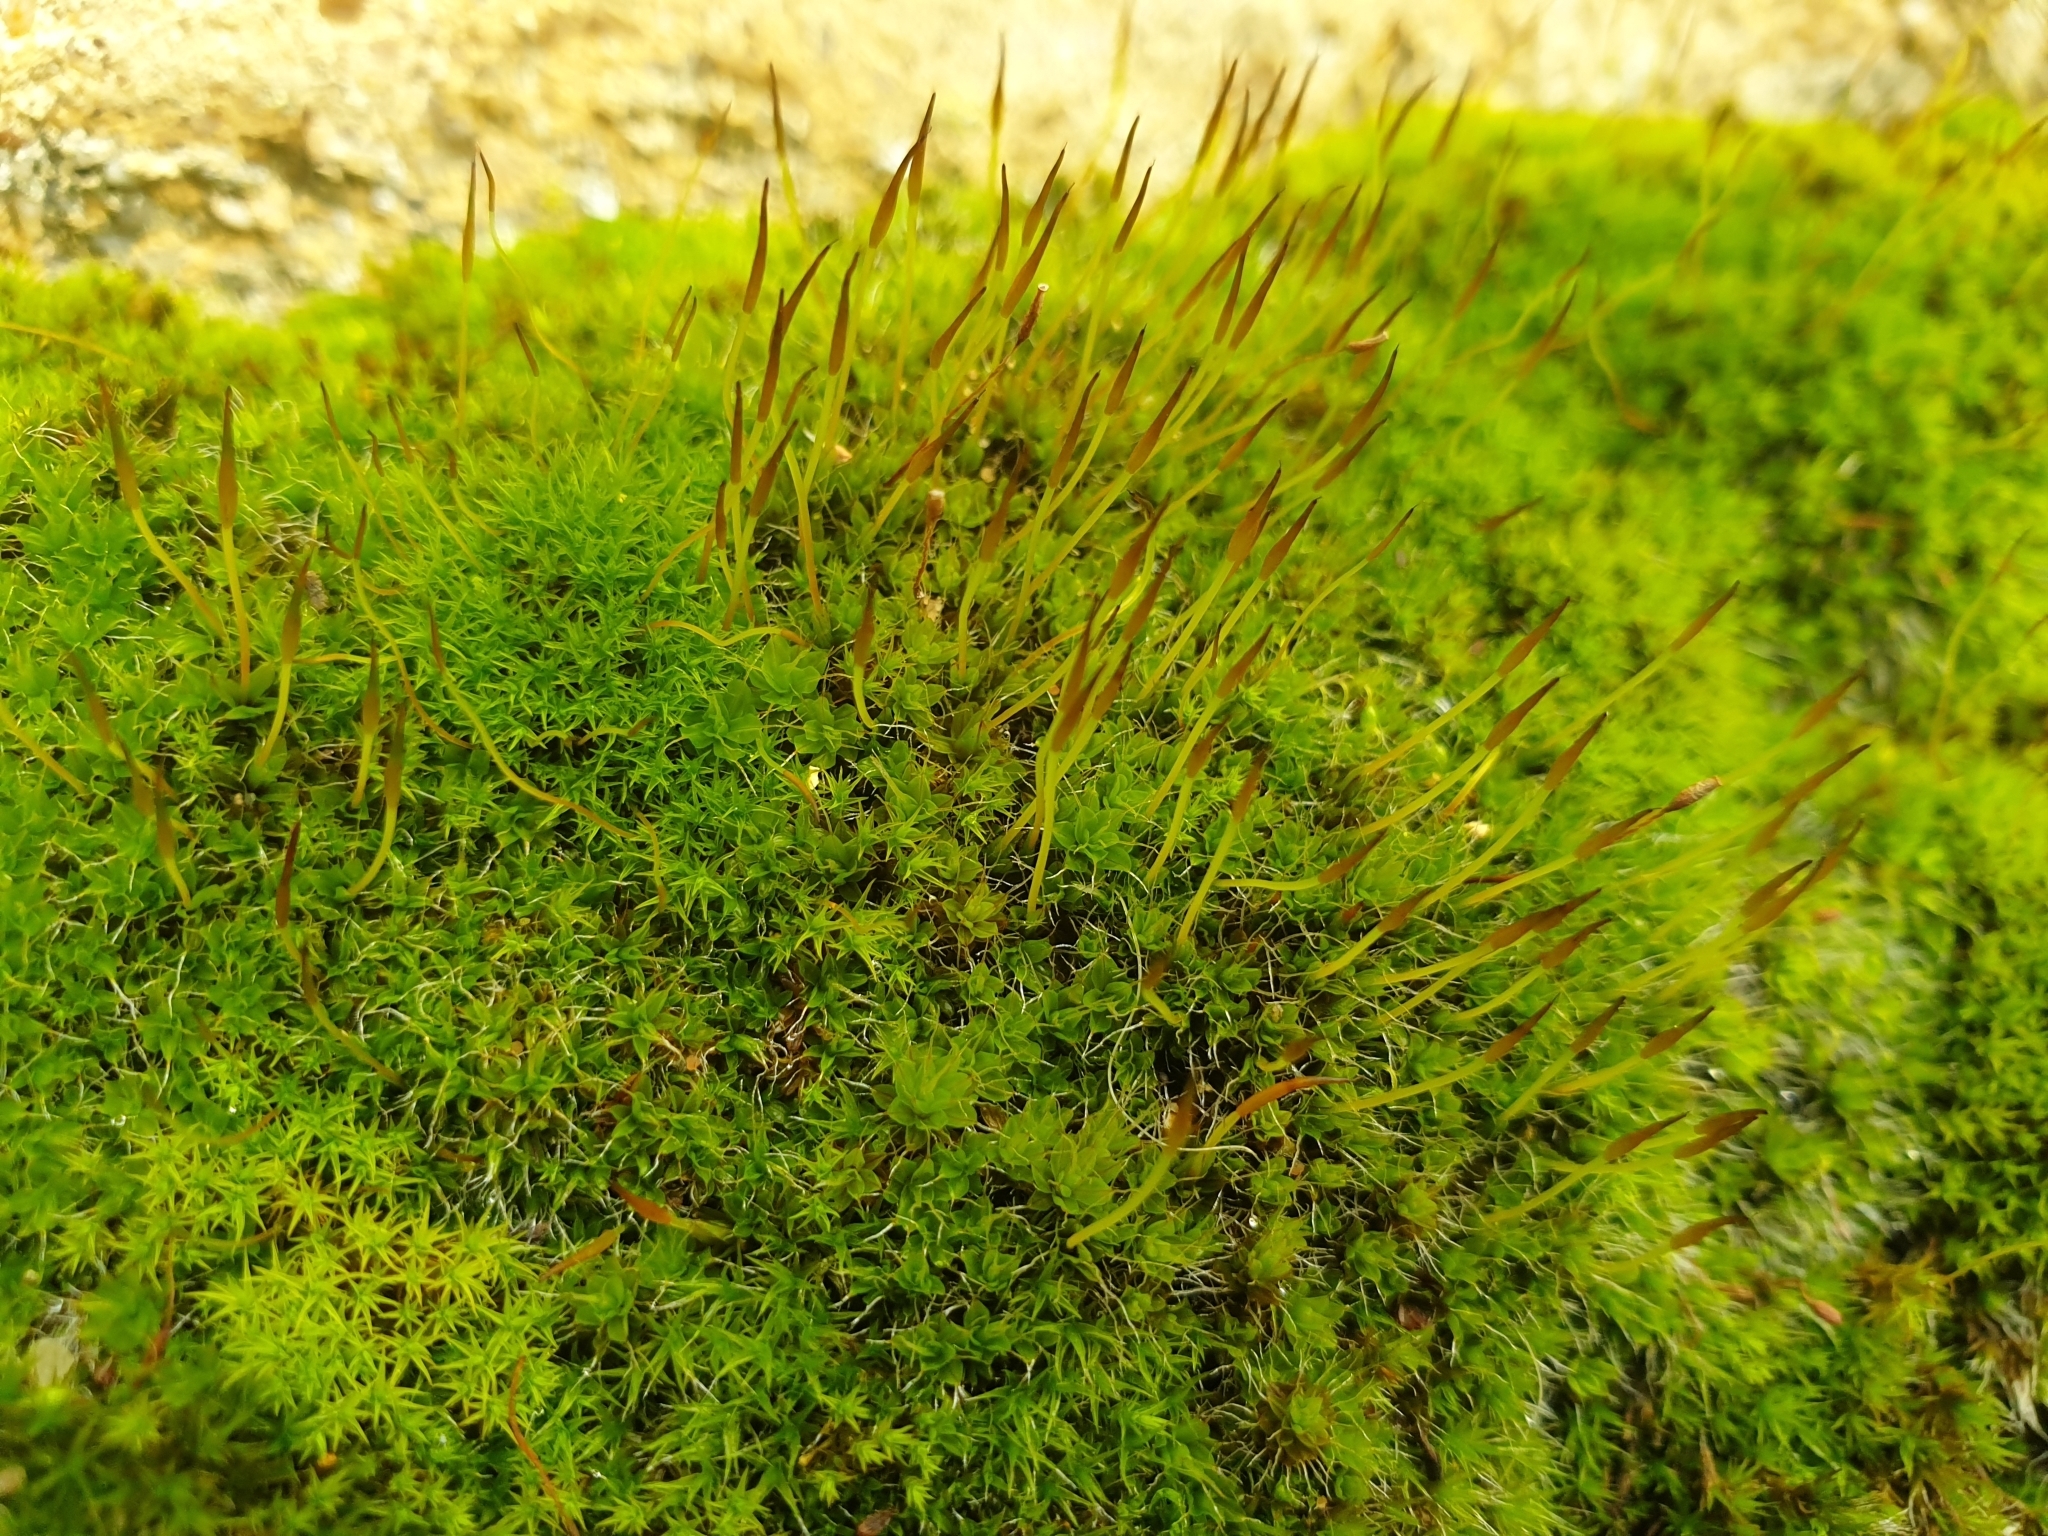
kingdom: Plantae
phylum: Bryophyta
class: Bryopsida
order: Pottiales
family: Pottiaceae
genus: Tortula
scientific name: Tortula muralis
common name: Wall screw-moss
